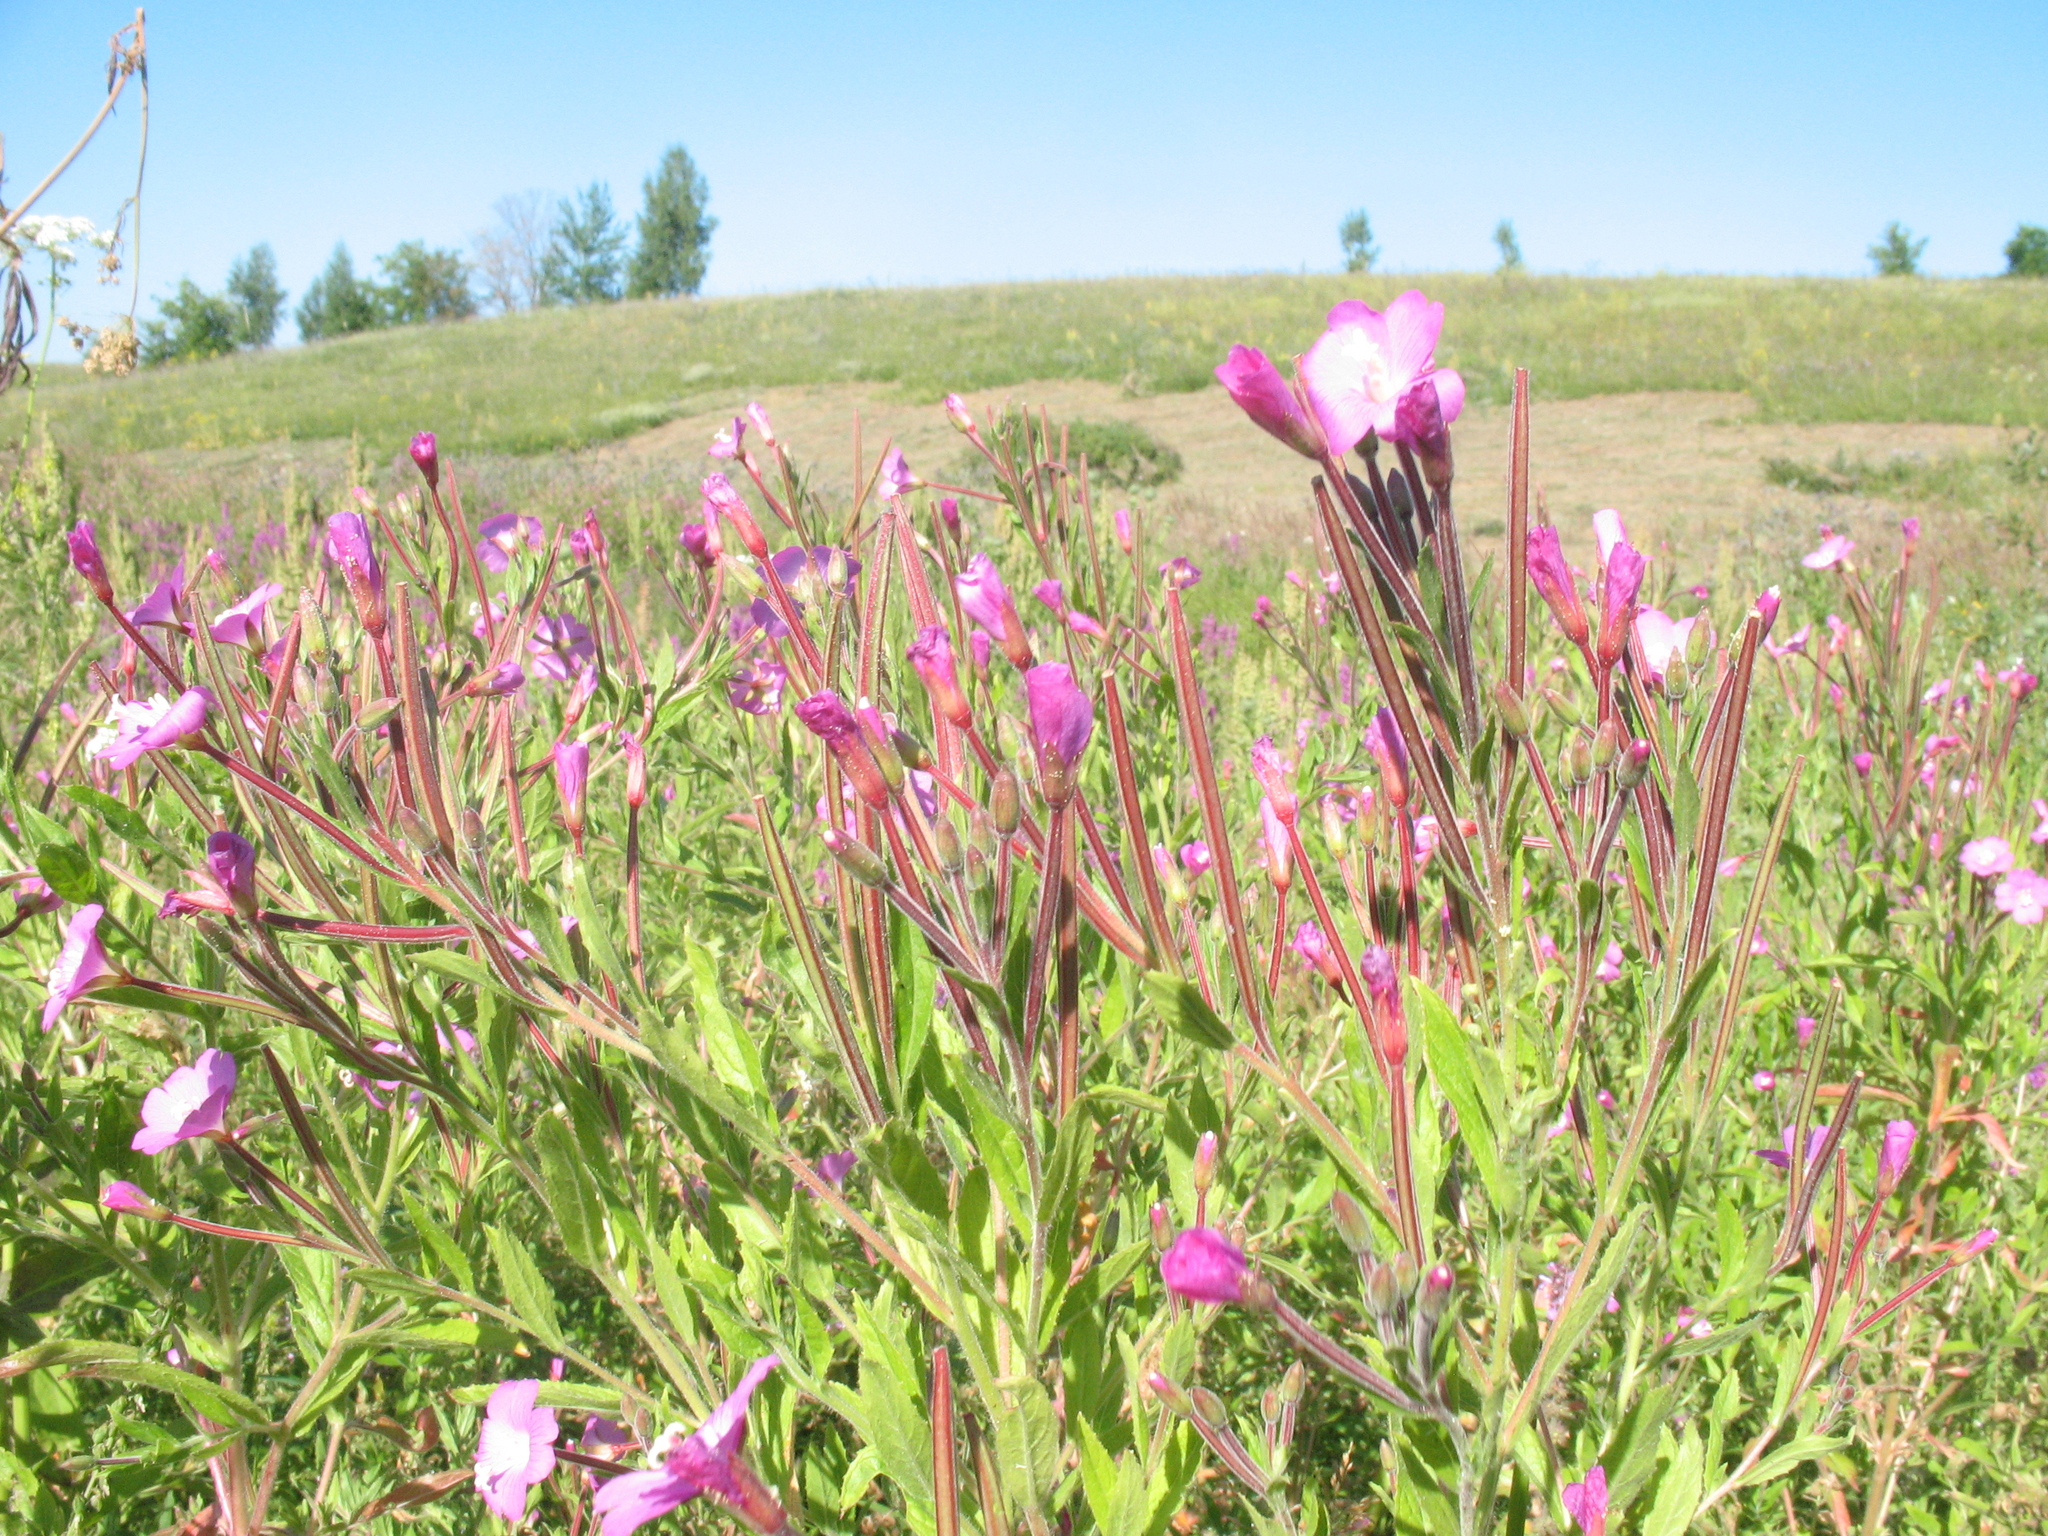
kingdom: Plantae
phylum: Tracheophyta
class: Magnoliopsida
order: Myrtales
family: Onagraceae
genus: Epilobium
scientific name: Epilobium hirsutum
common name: Great willowherb
